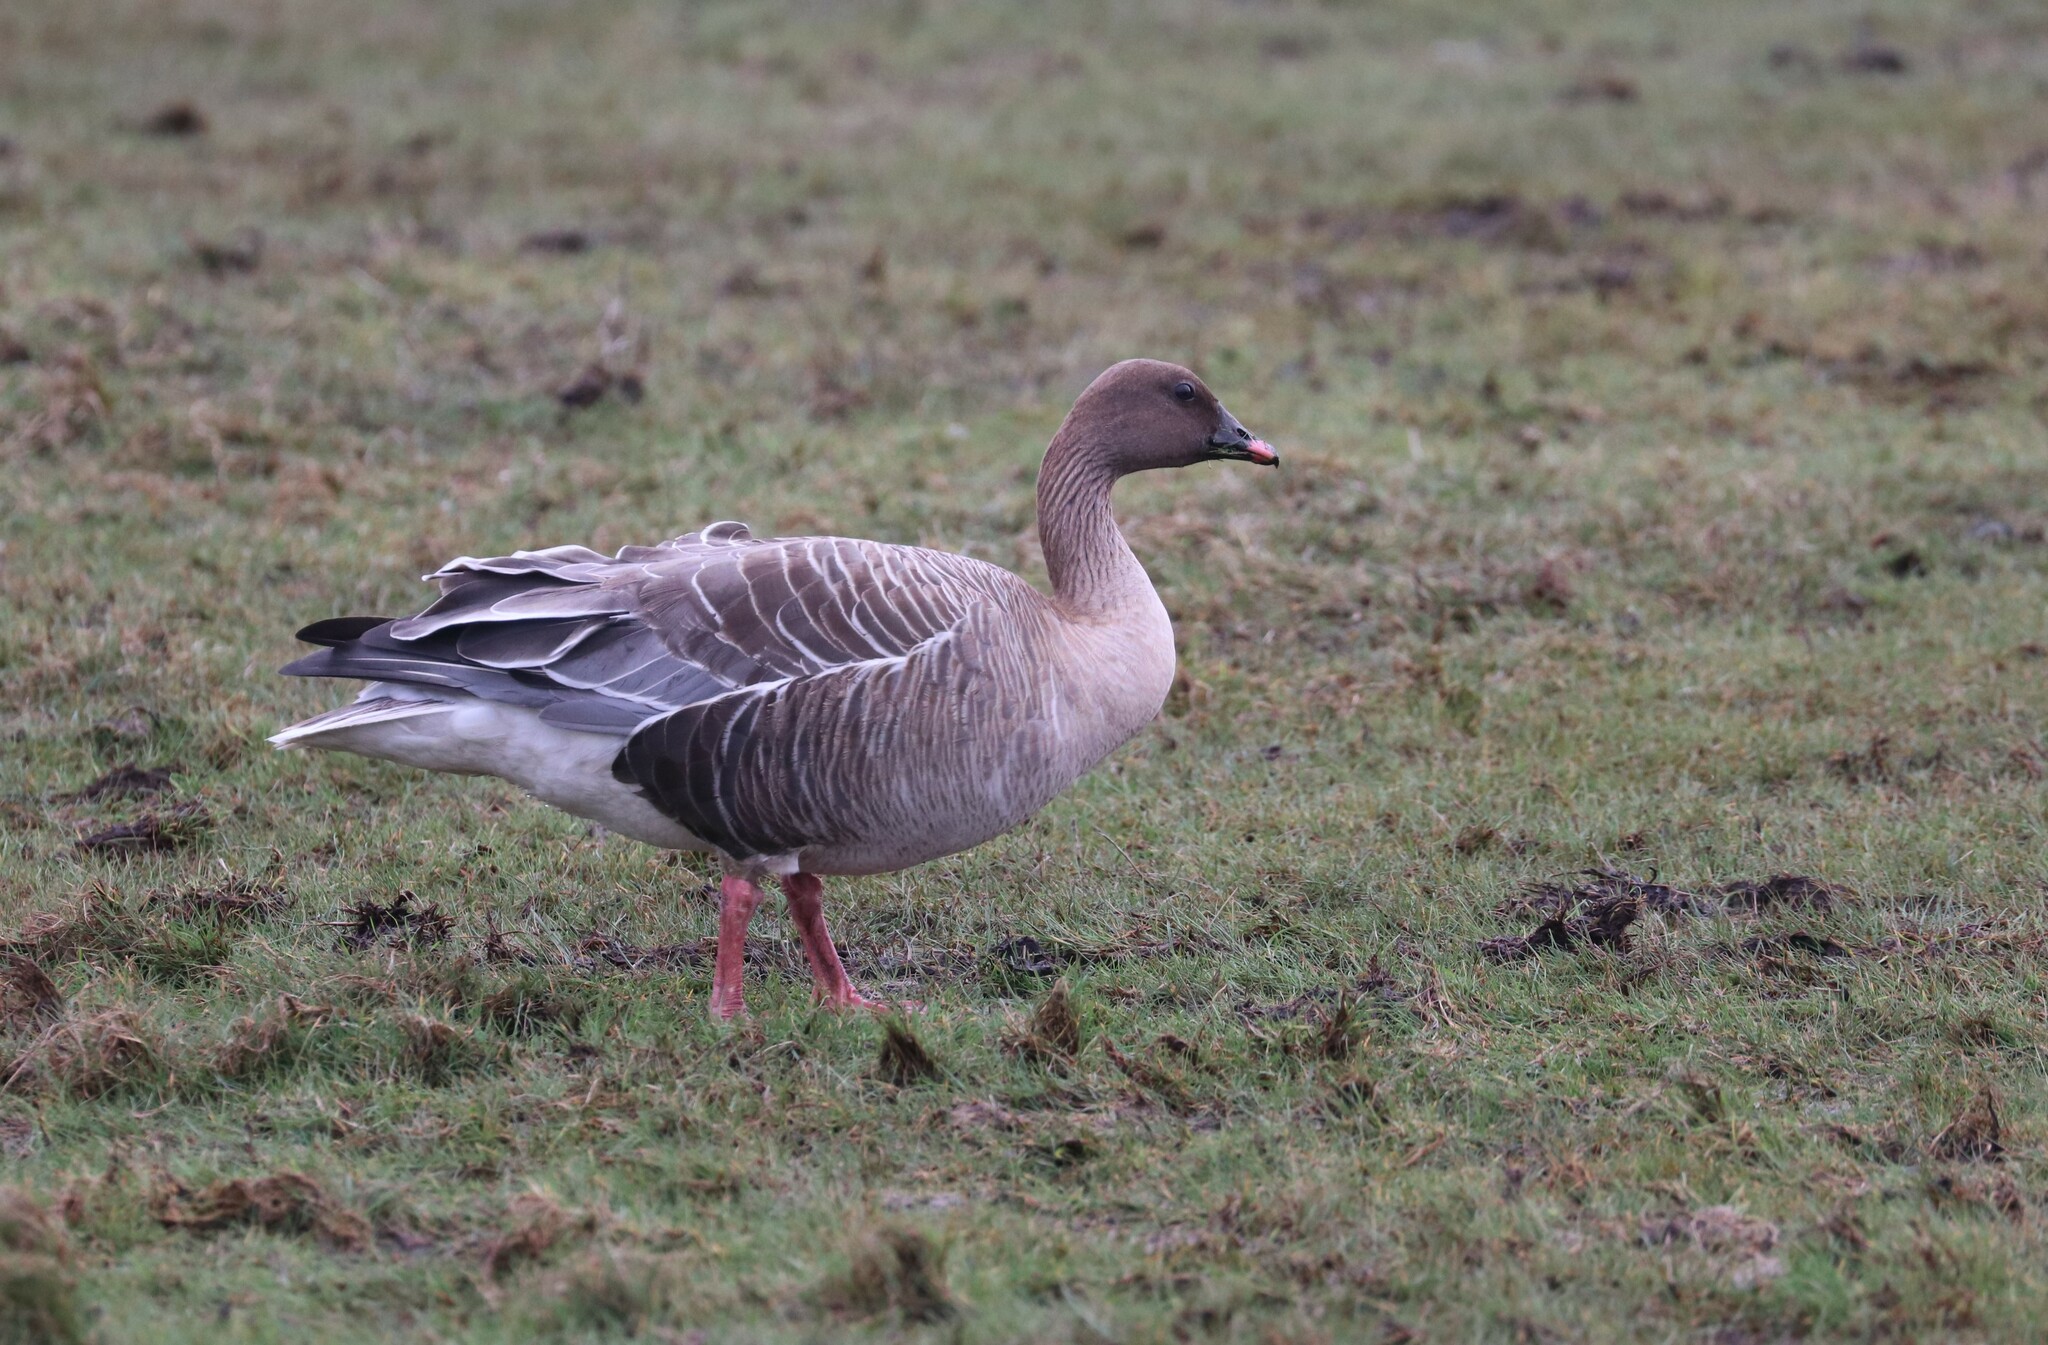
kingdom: Animalia
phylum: Chordata
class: Aves
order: Anseriformes
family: Anatidae
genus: Anser
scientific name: Anser brachyrhynchus
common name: Pink-footed goose
